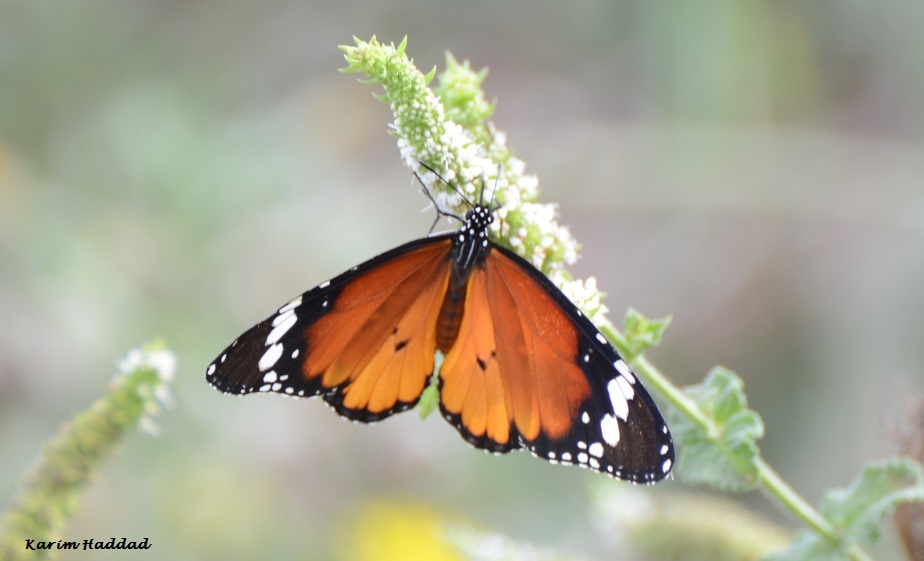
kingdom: Animalia
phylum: Arthropoda
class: Insecta
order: Lepidoptera
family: Nymphalidae
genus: Danaus
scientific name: Danaus chrysippus
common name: Plain tiger
